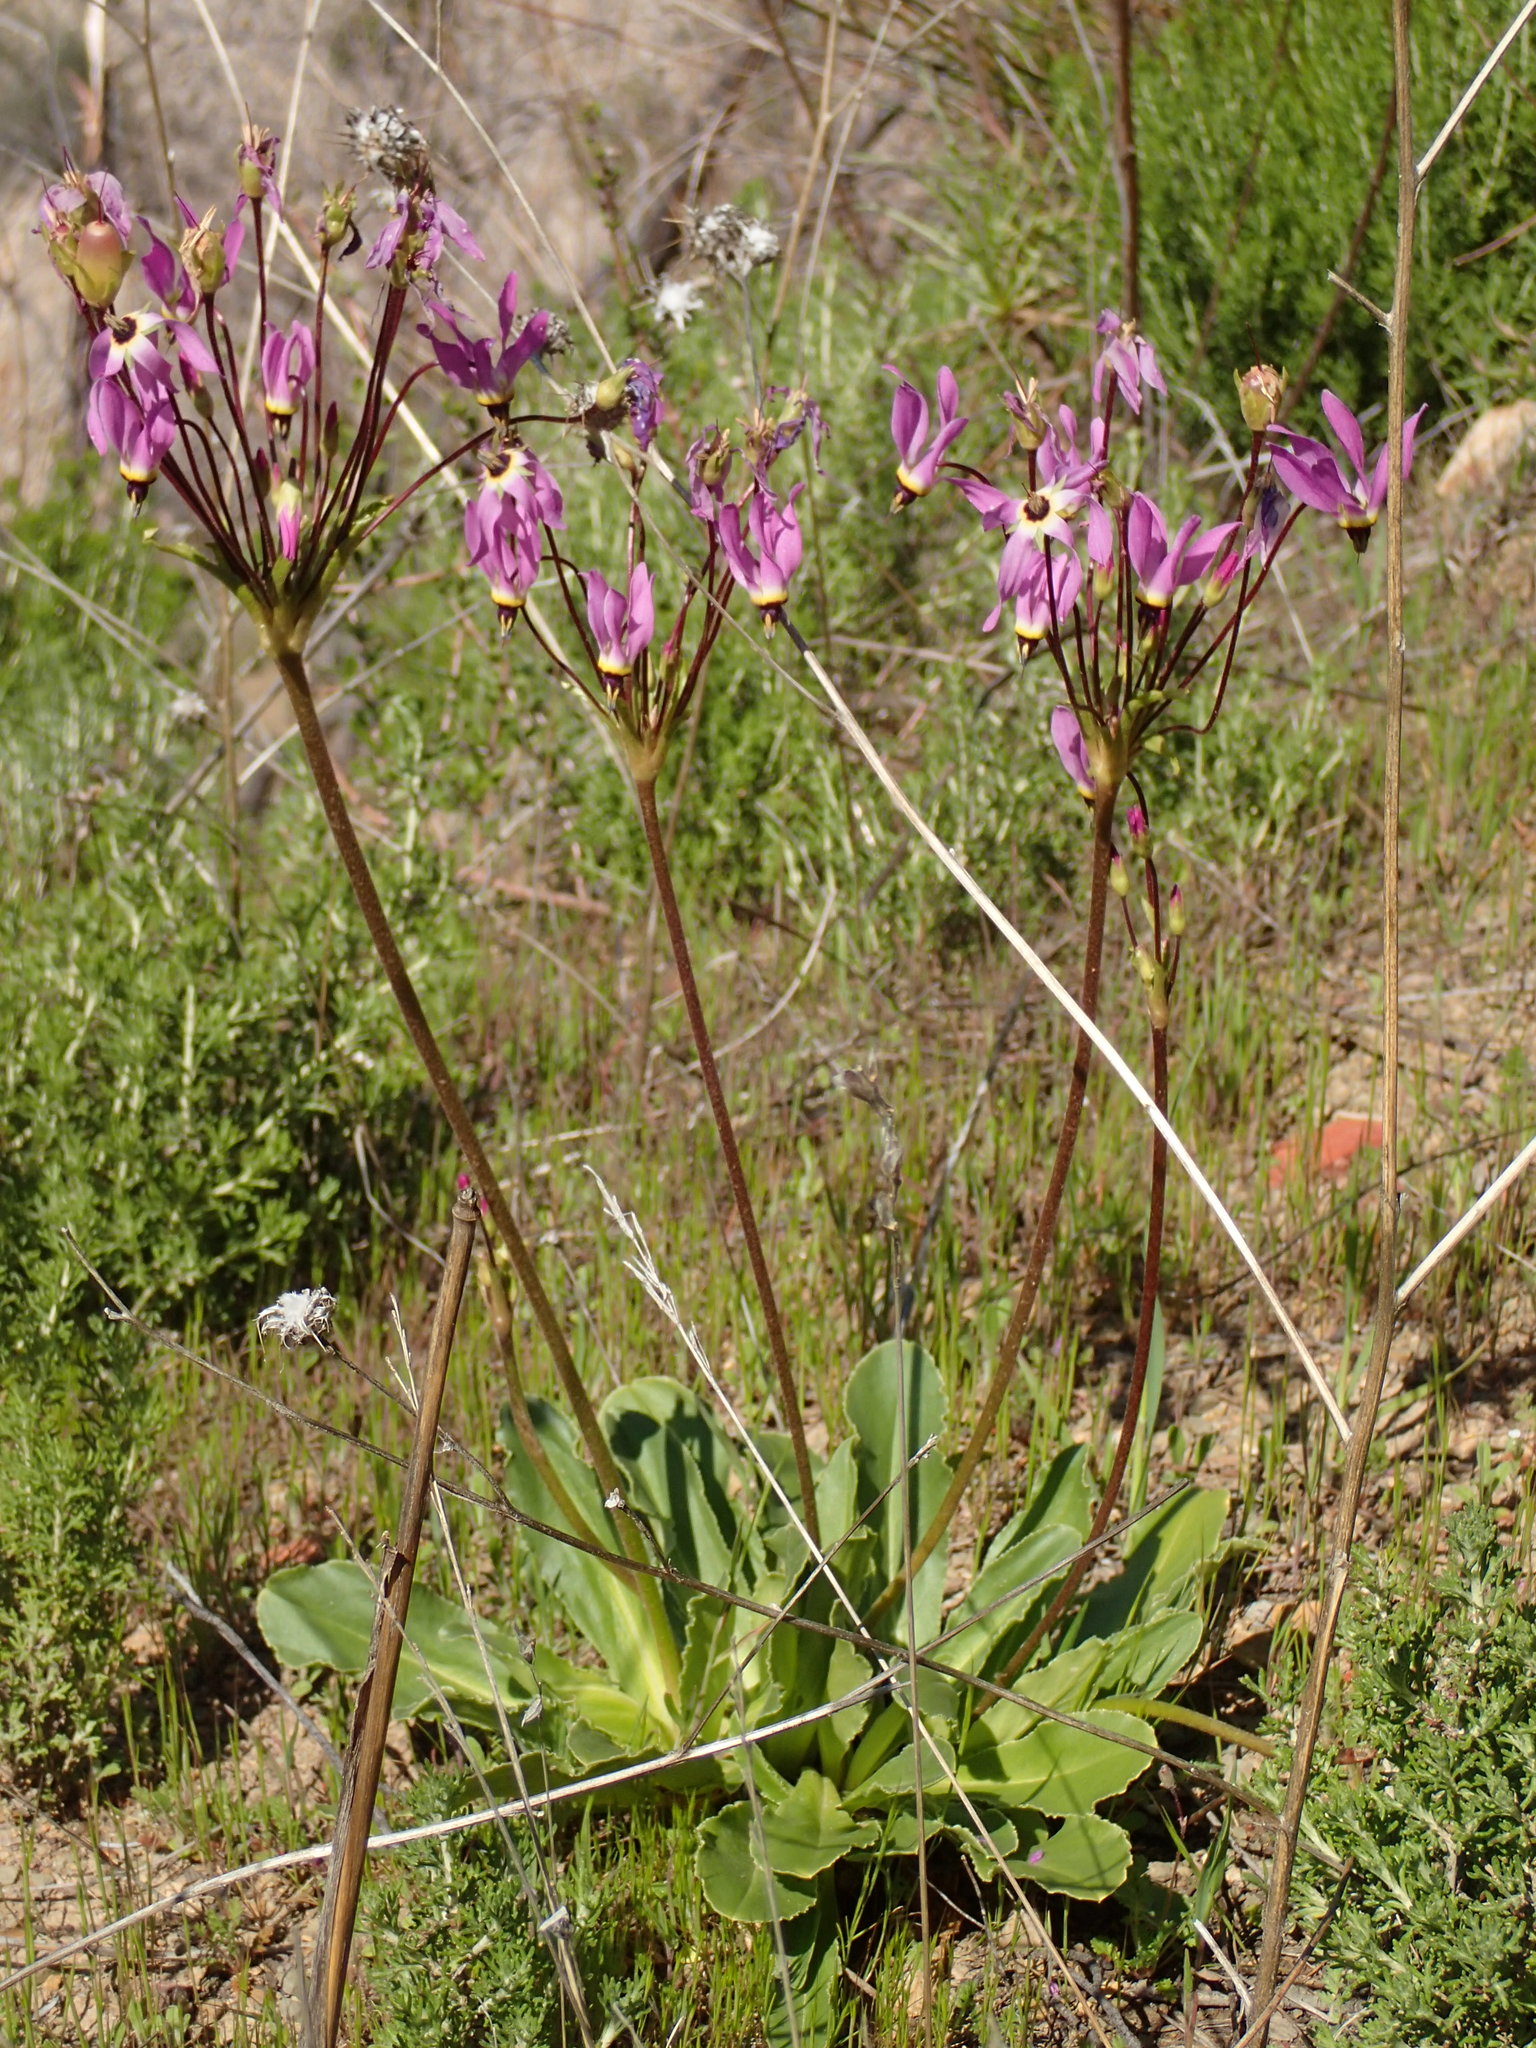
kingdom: Plantae
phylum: Tracheophyta
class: Magnoliopsida
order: Ericales
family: Primulaceae
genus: Dodecatheon
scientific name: Dodecatheon clevelandii
